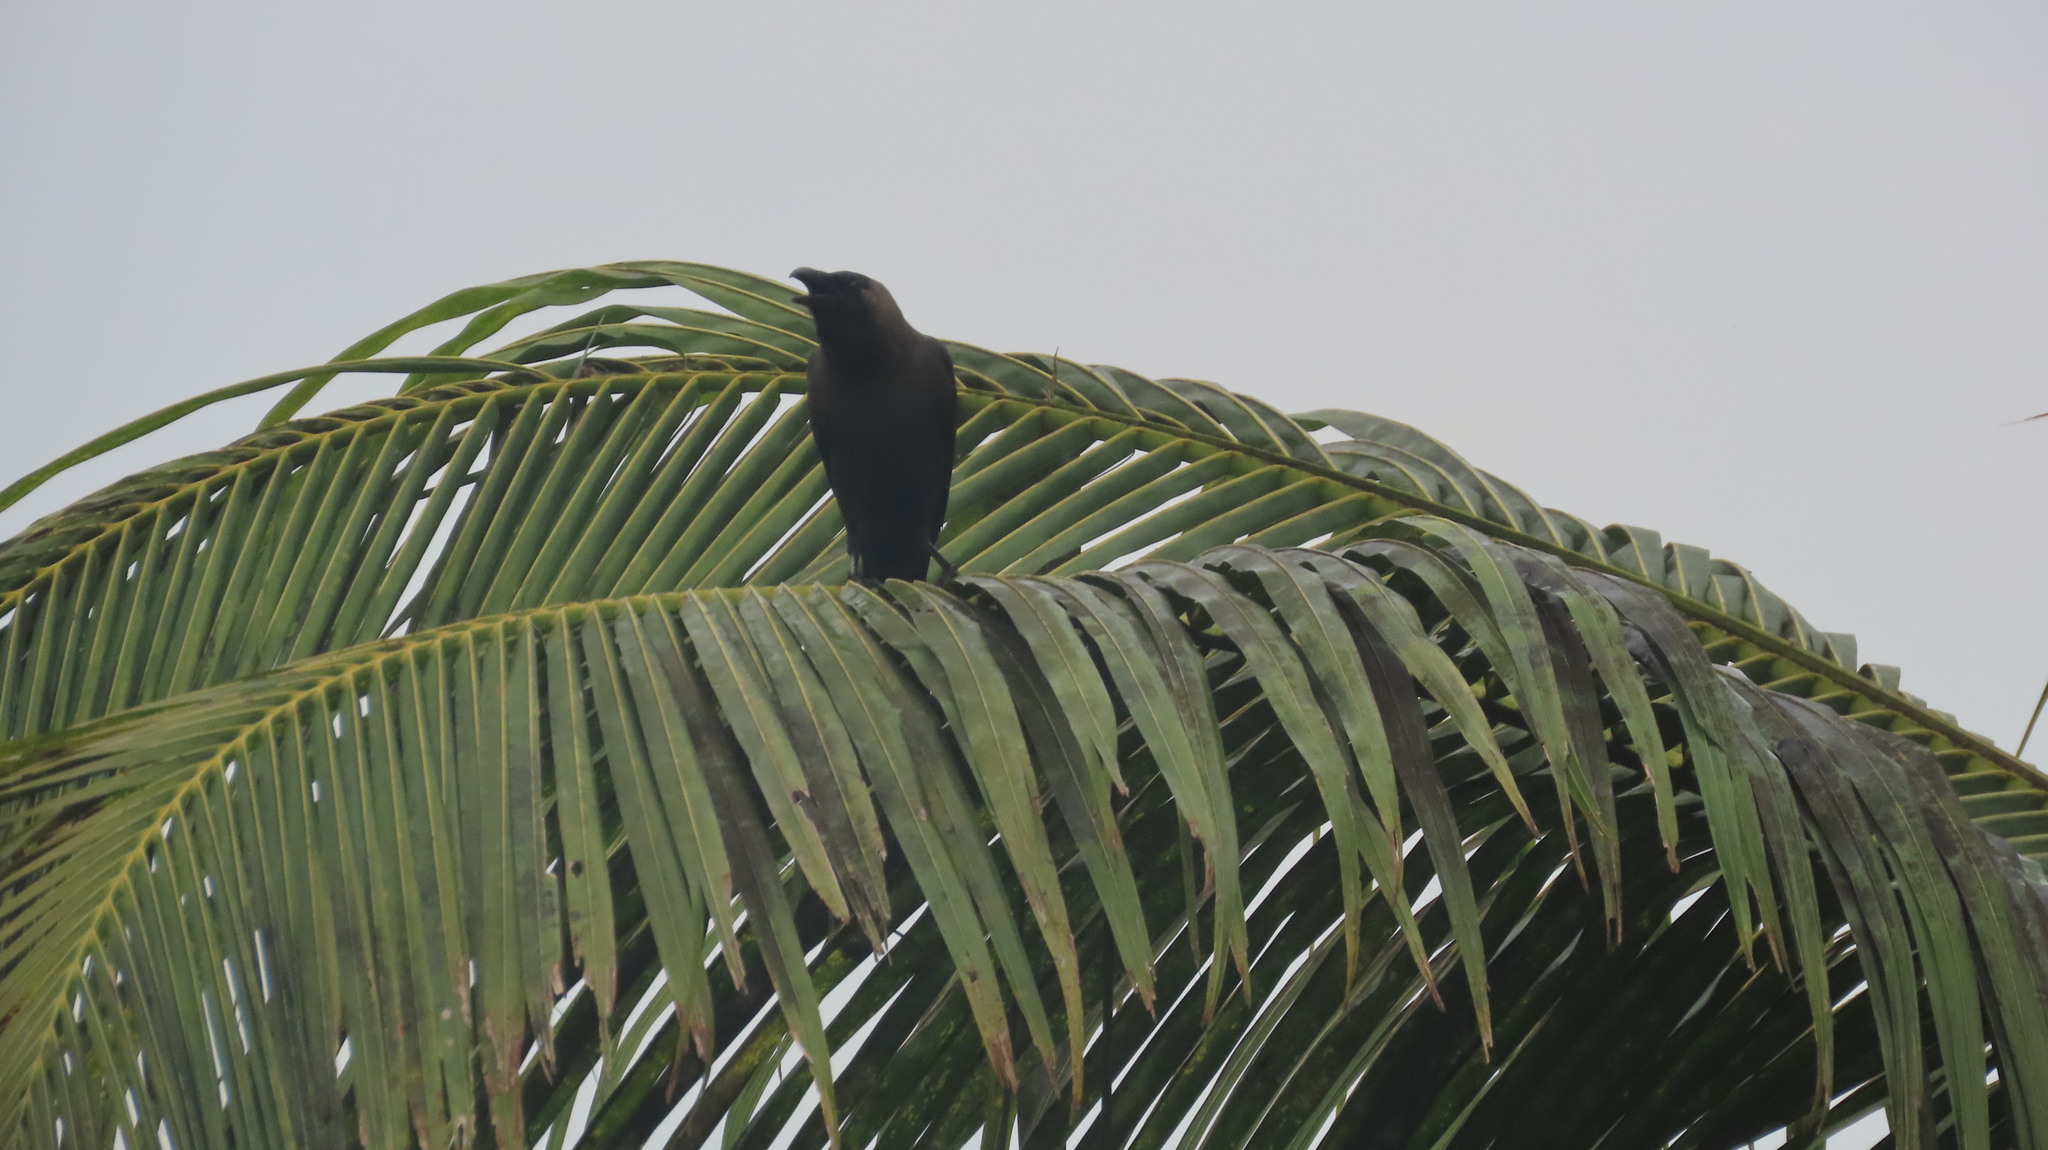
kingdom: Animalia
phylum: Chordata
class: Aves
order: Passeriformes
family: Corvidae
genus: Corvus
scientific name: Corvus splendens
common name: House crow
